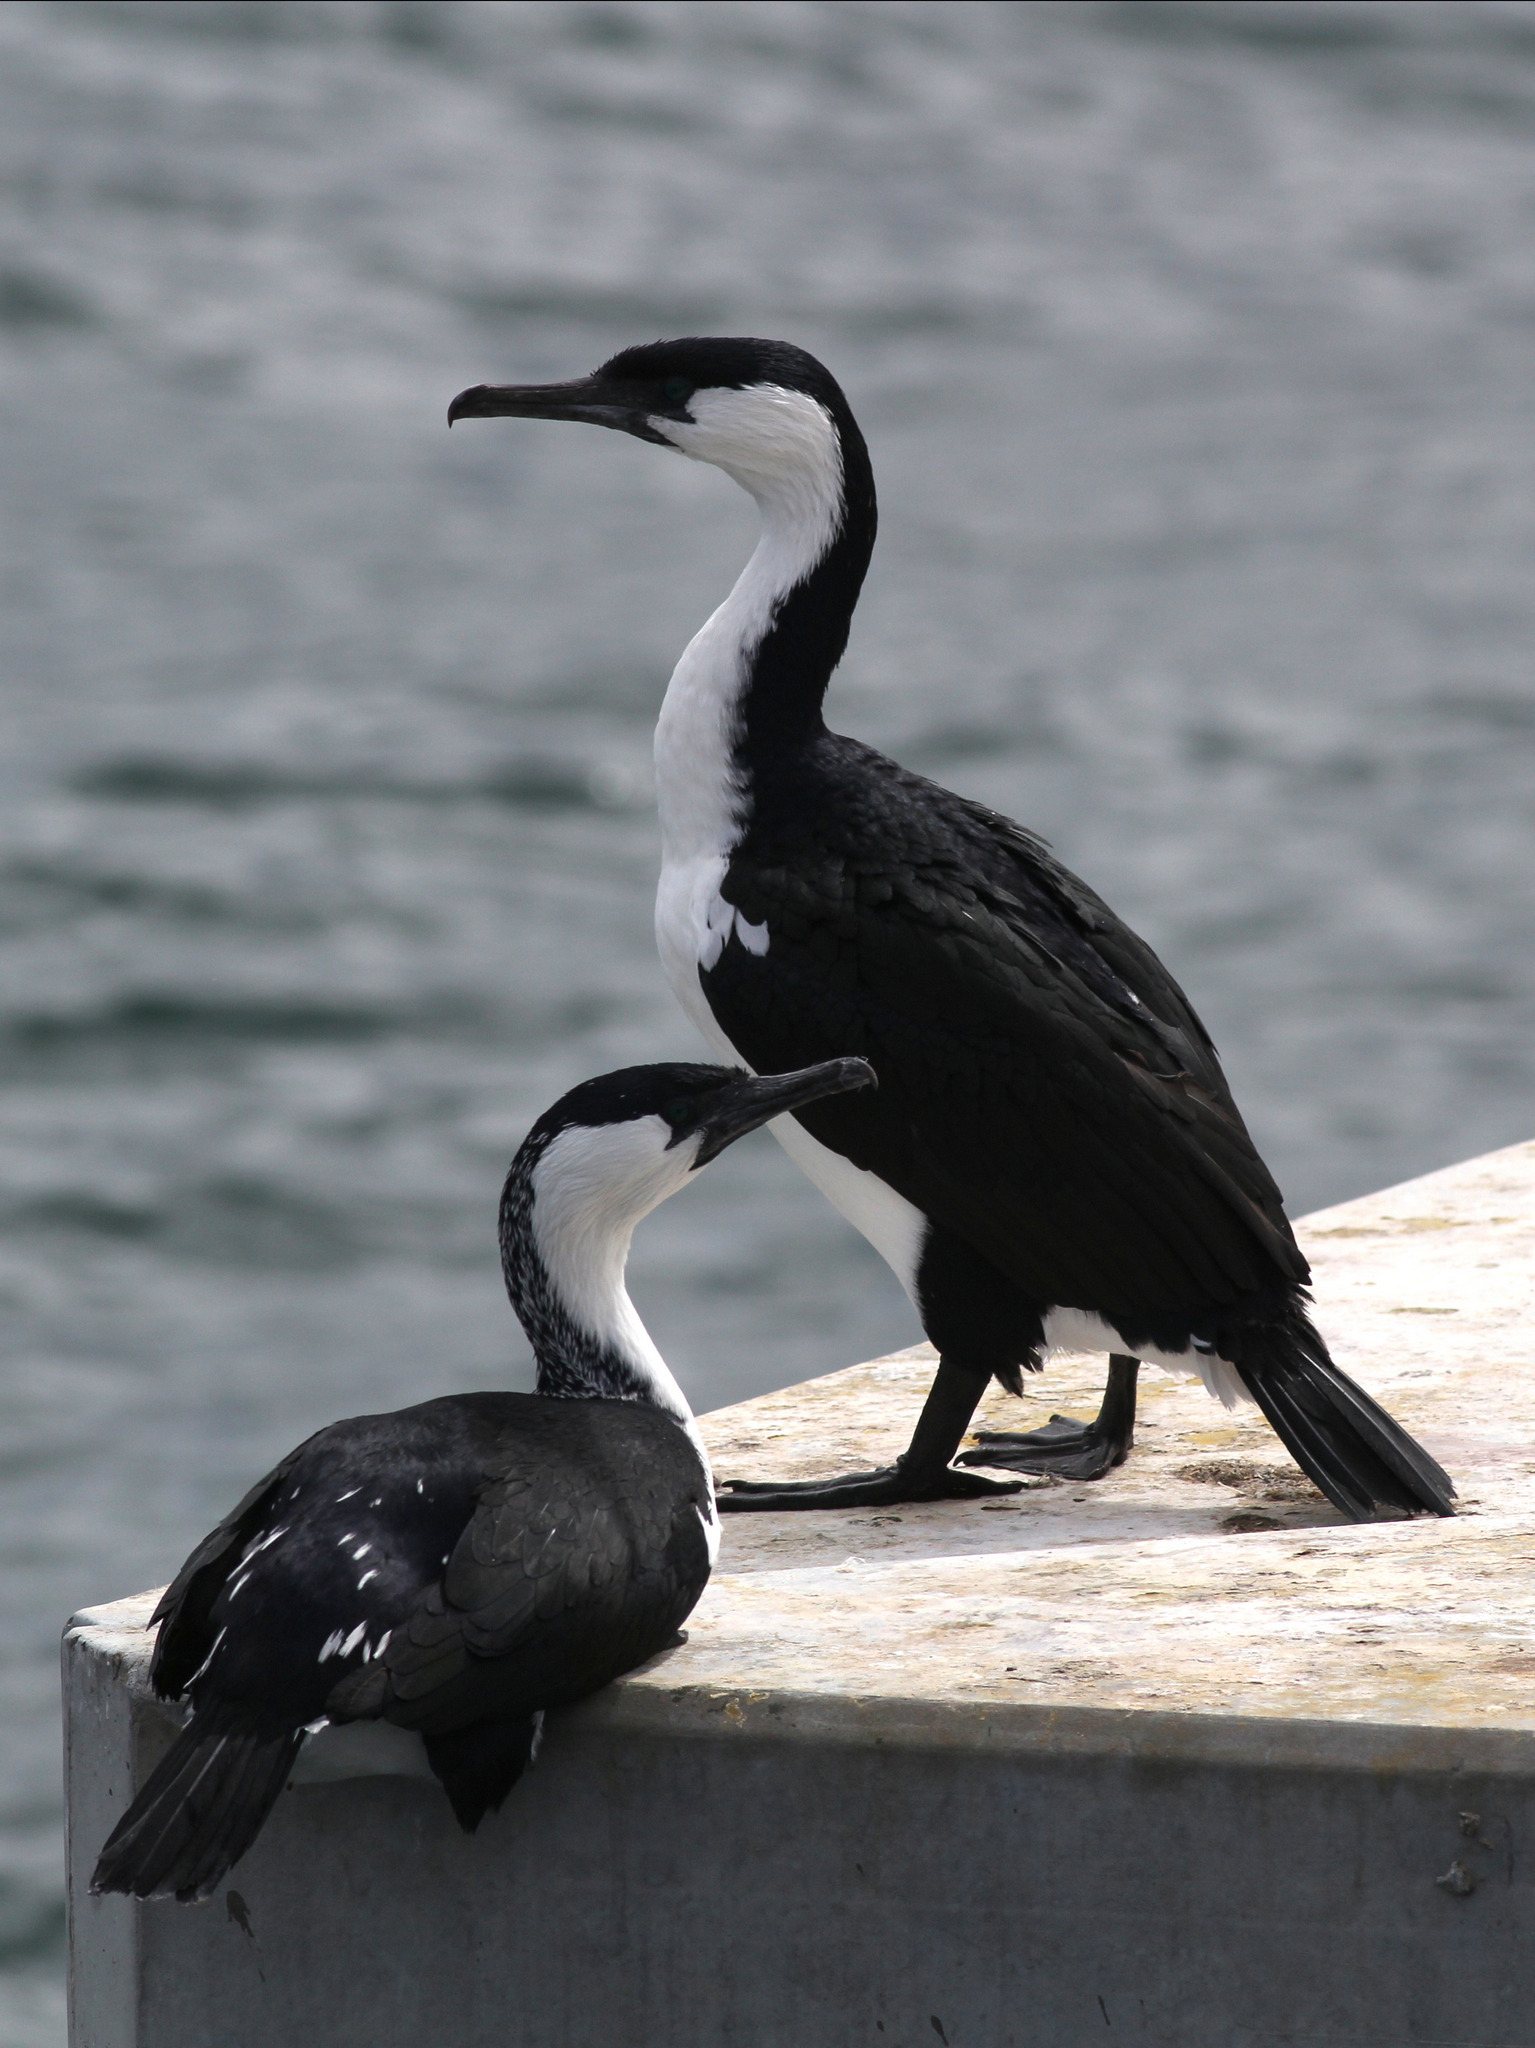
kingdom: Animalia
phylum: Chordata
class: Aves
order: Suliformes
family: Phalacrocoracidae
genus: Phalacrocorax
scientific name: Phalacrocorax fuscescens
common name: Black-faced cormorant
